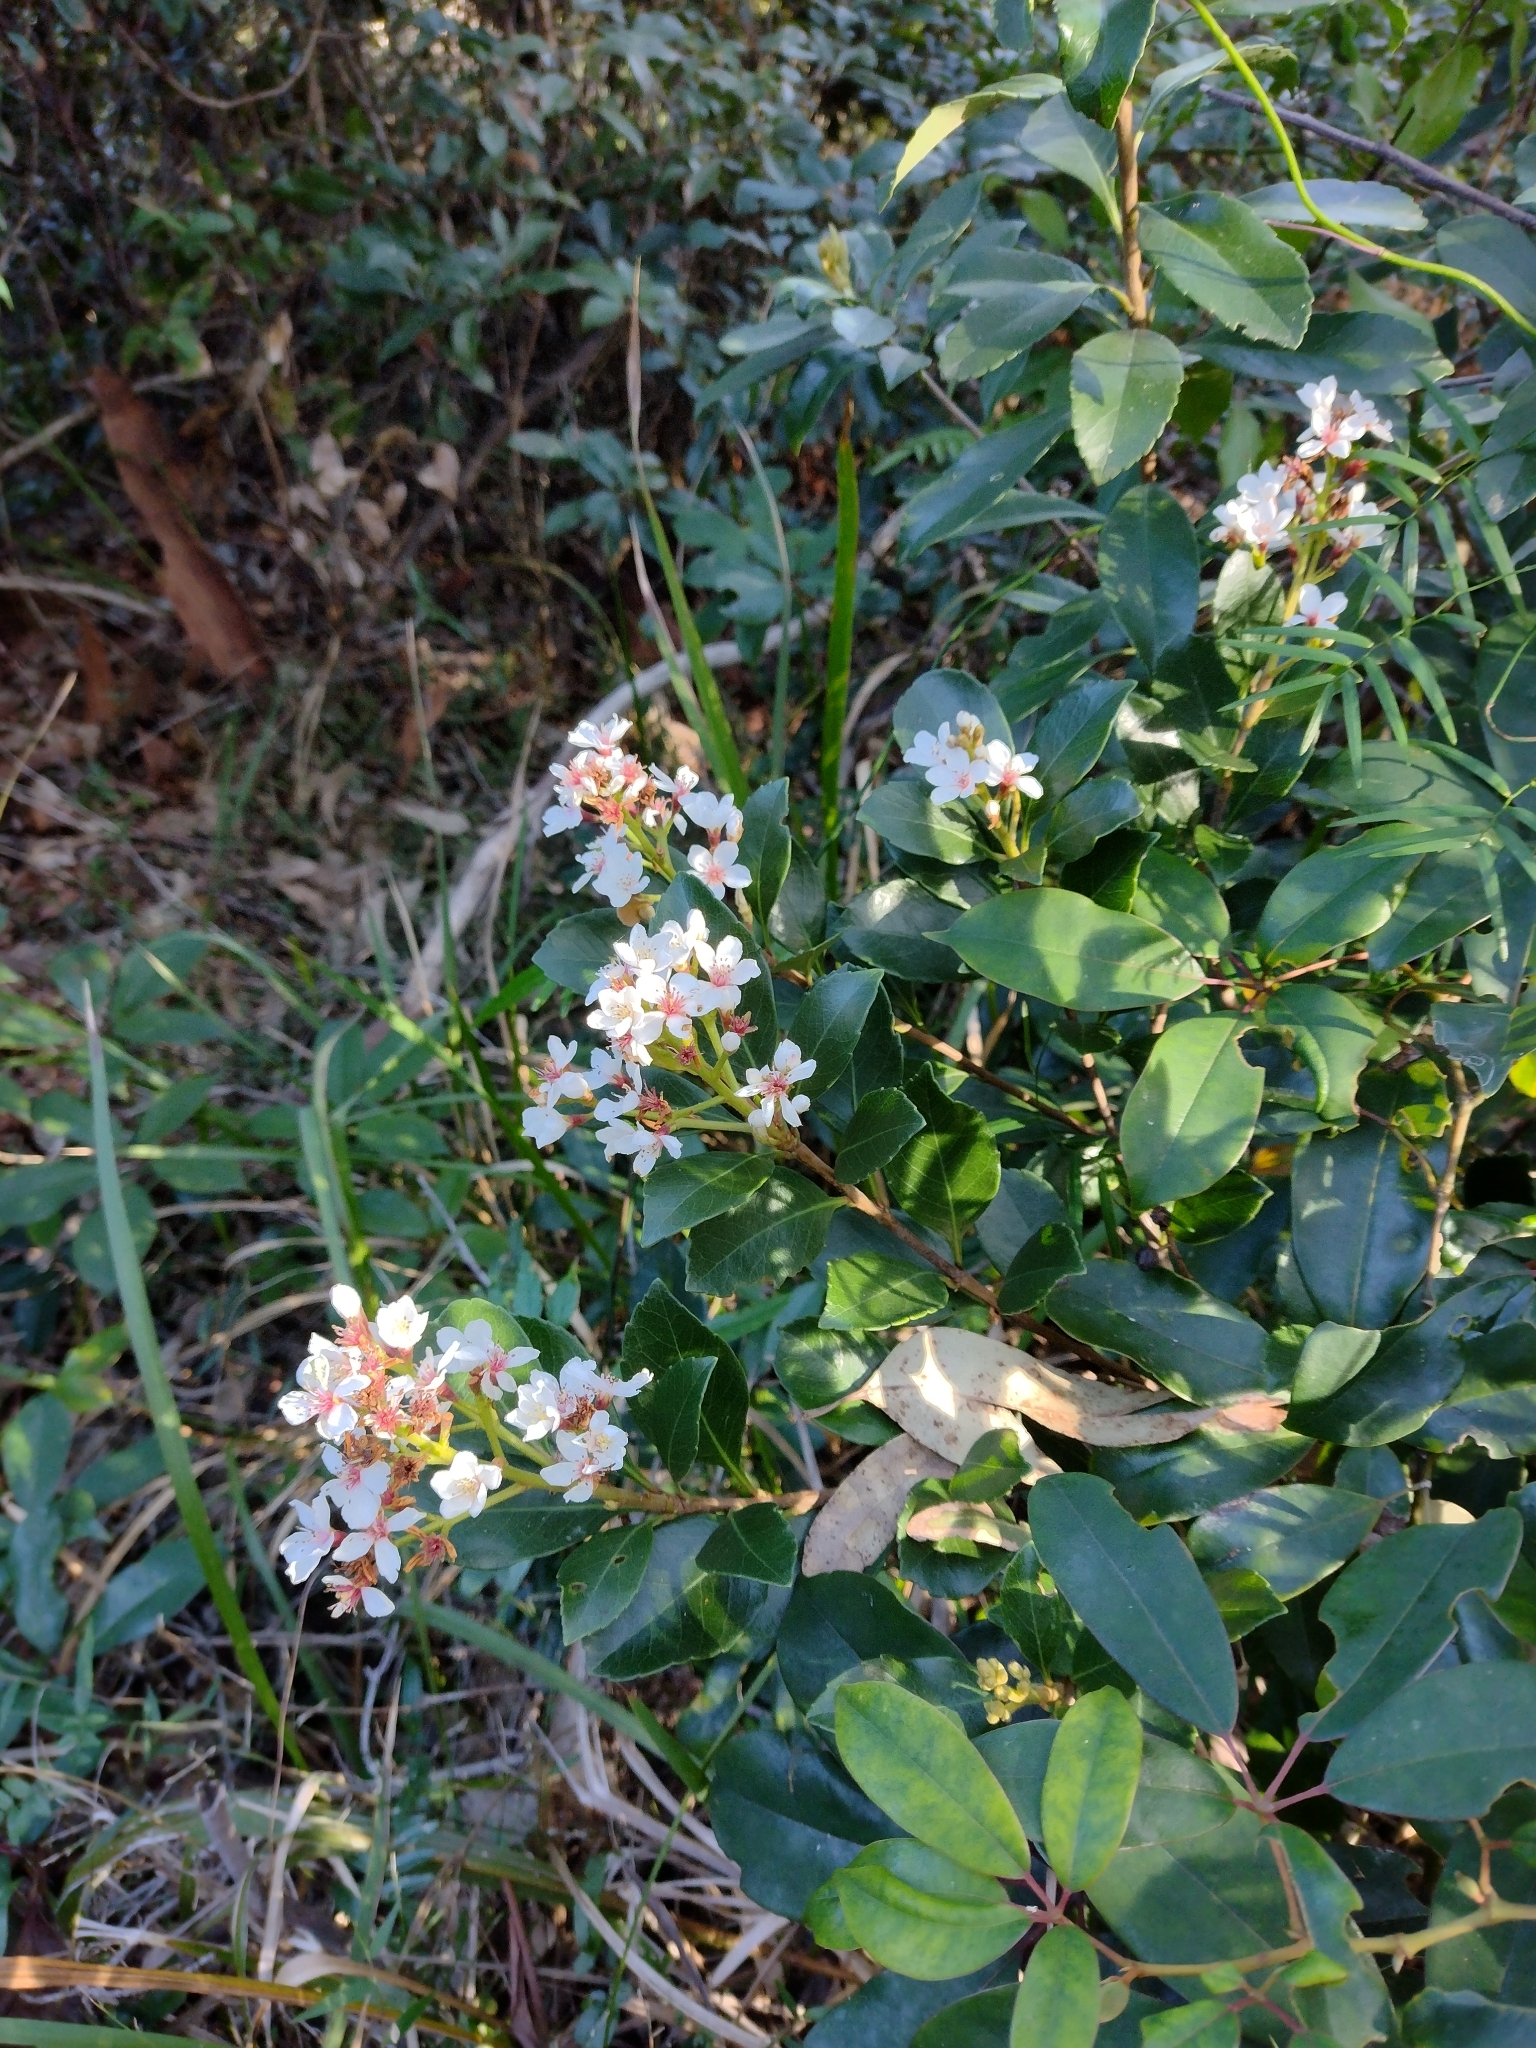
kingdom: Plantae
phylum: Tracheophyta
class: Magnoliopsida
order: Rosales
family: Rosaceae
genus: Rhaphiolepis
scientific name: Rhaphiolepis indica
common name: India-hawthorn
